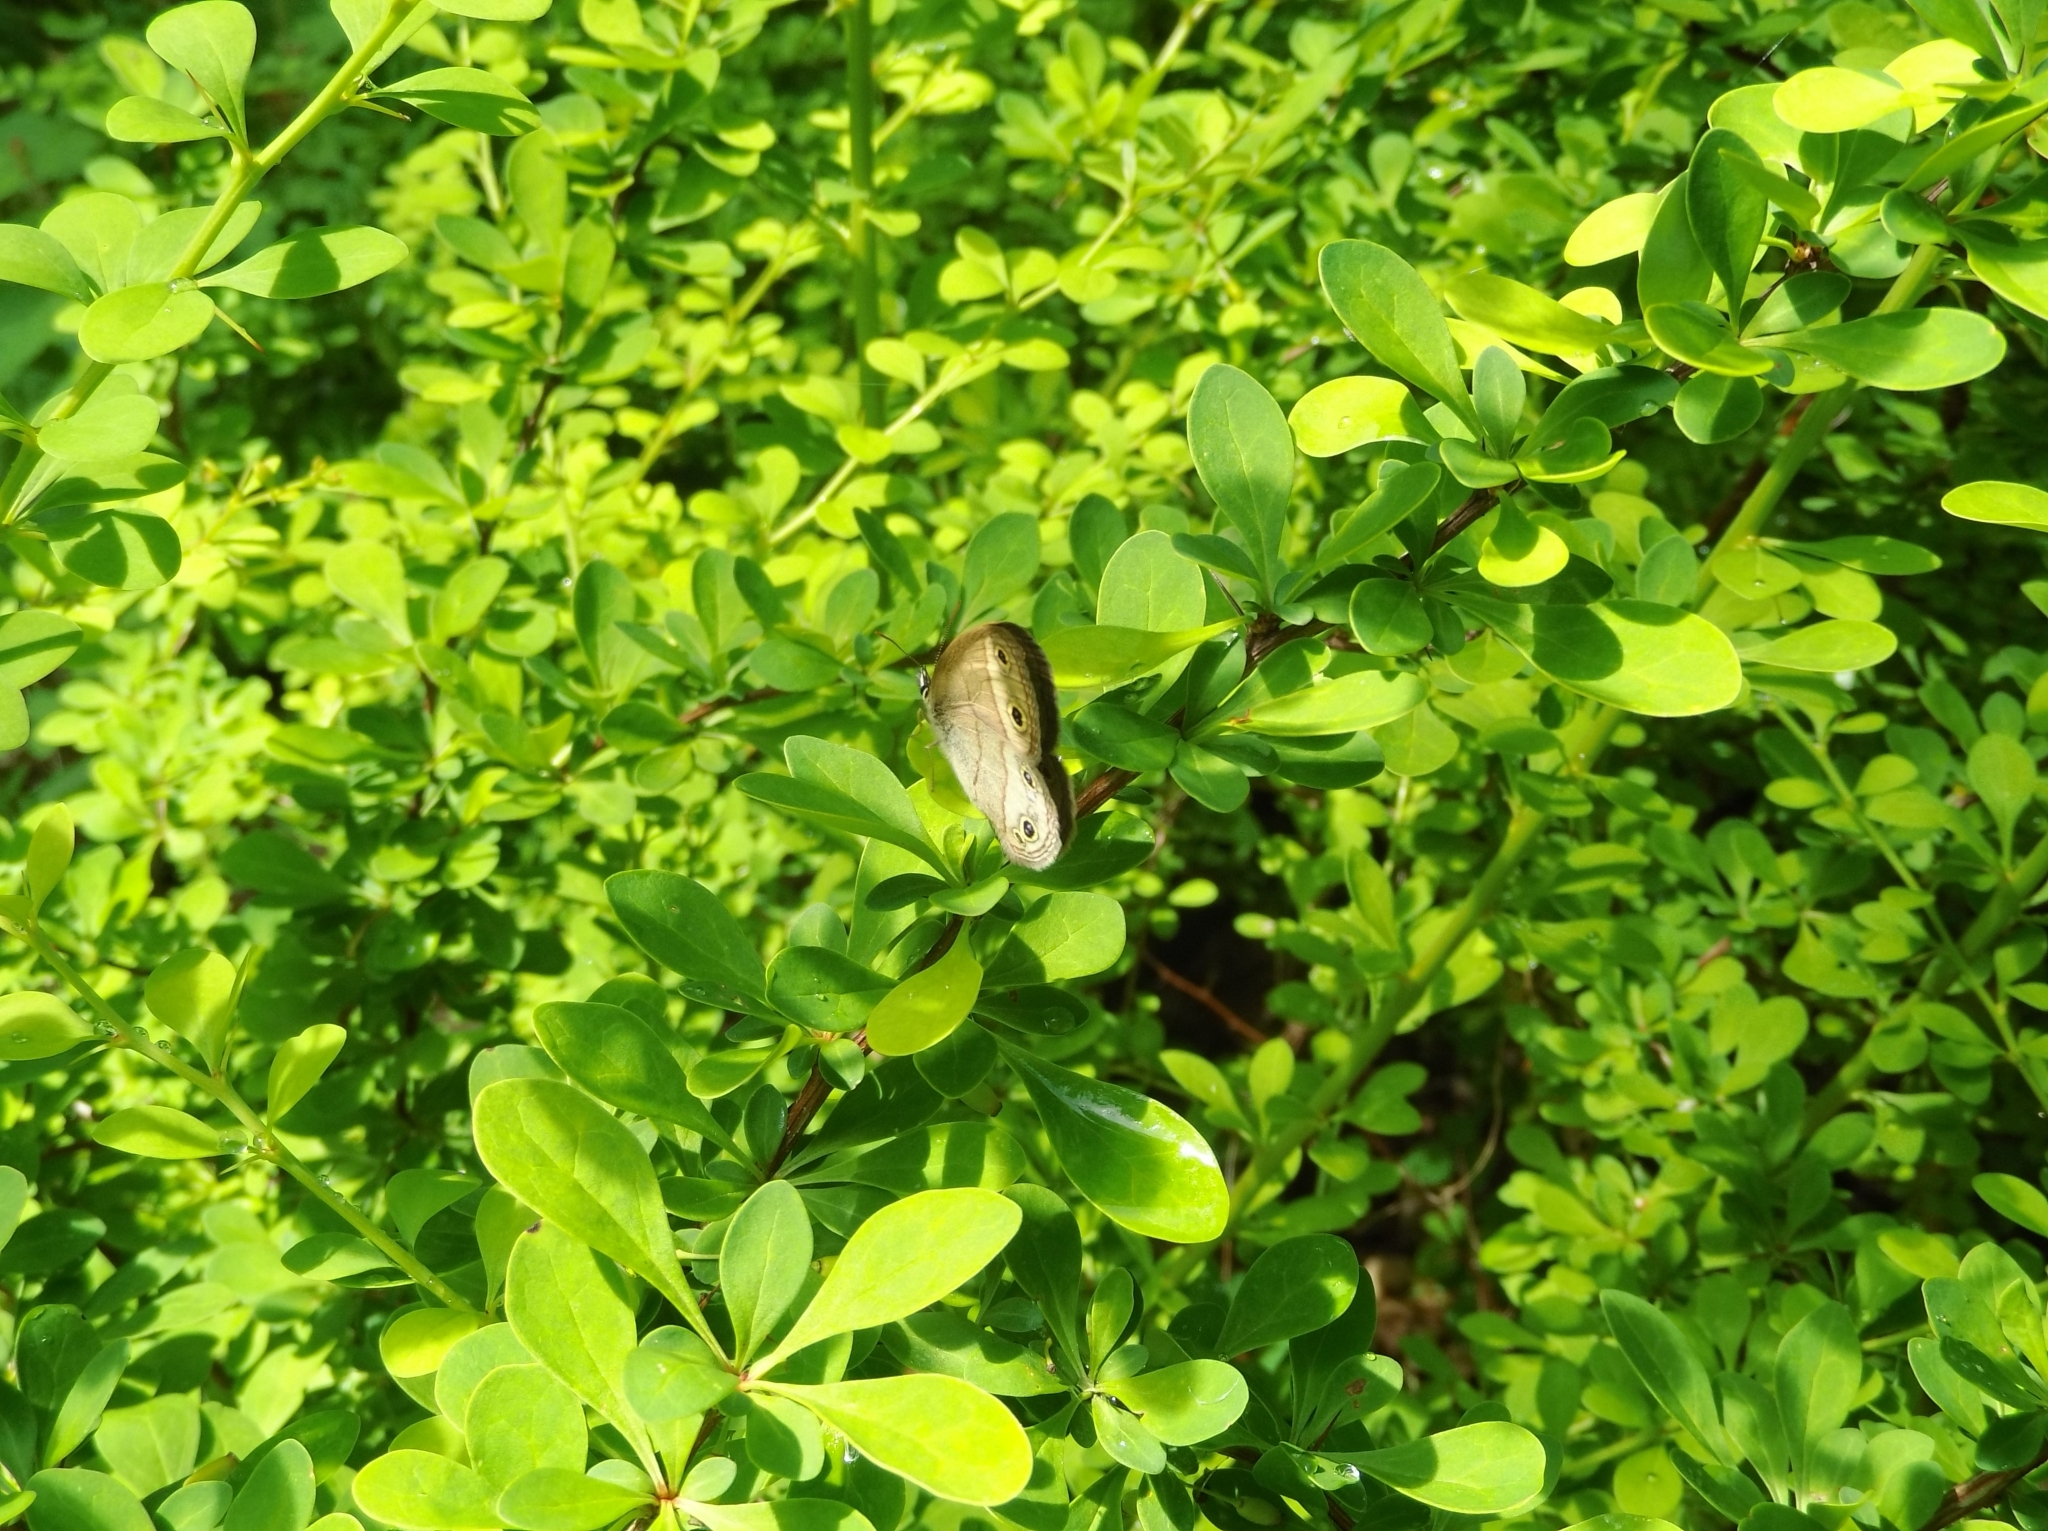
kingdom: Animalia
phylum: Arthropoda
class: Insecta
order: Lepidoptera
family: Nymphalidae
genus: Euptychia
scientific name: Euptychia cymela
